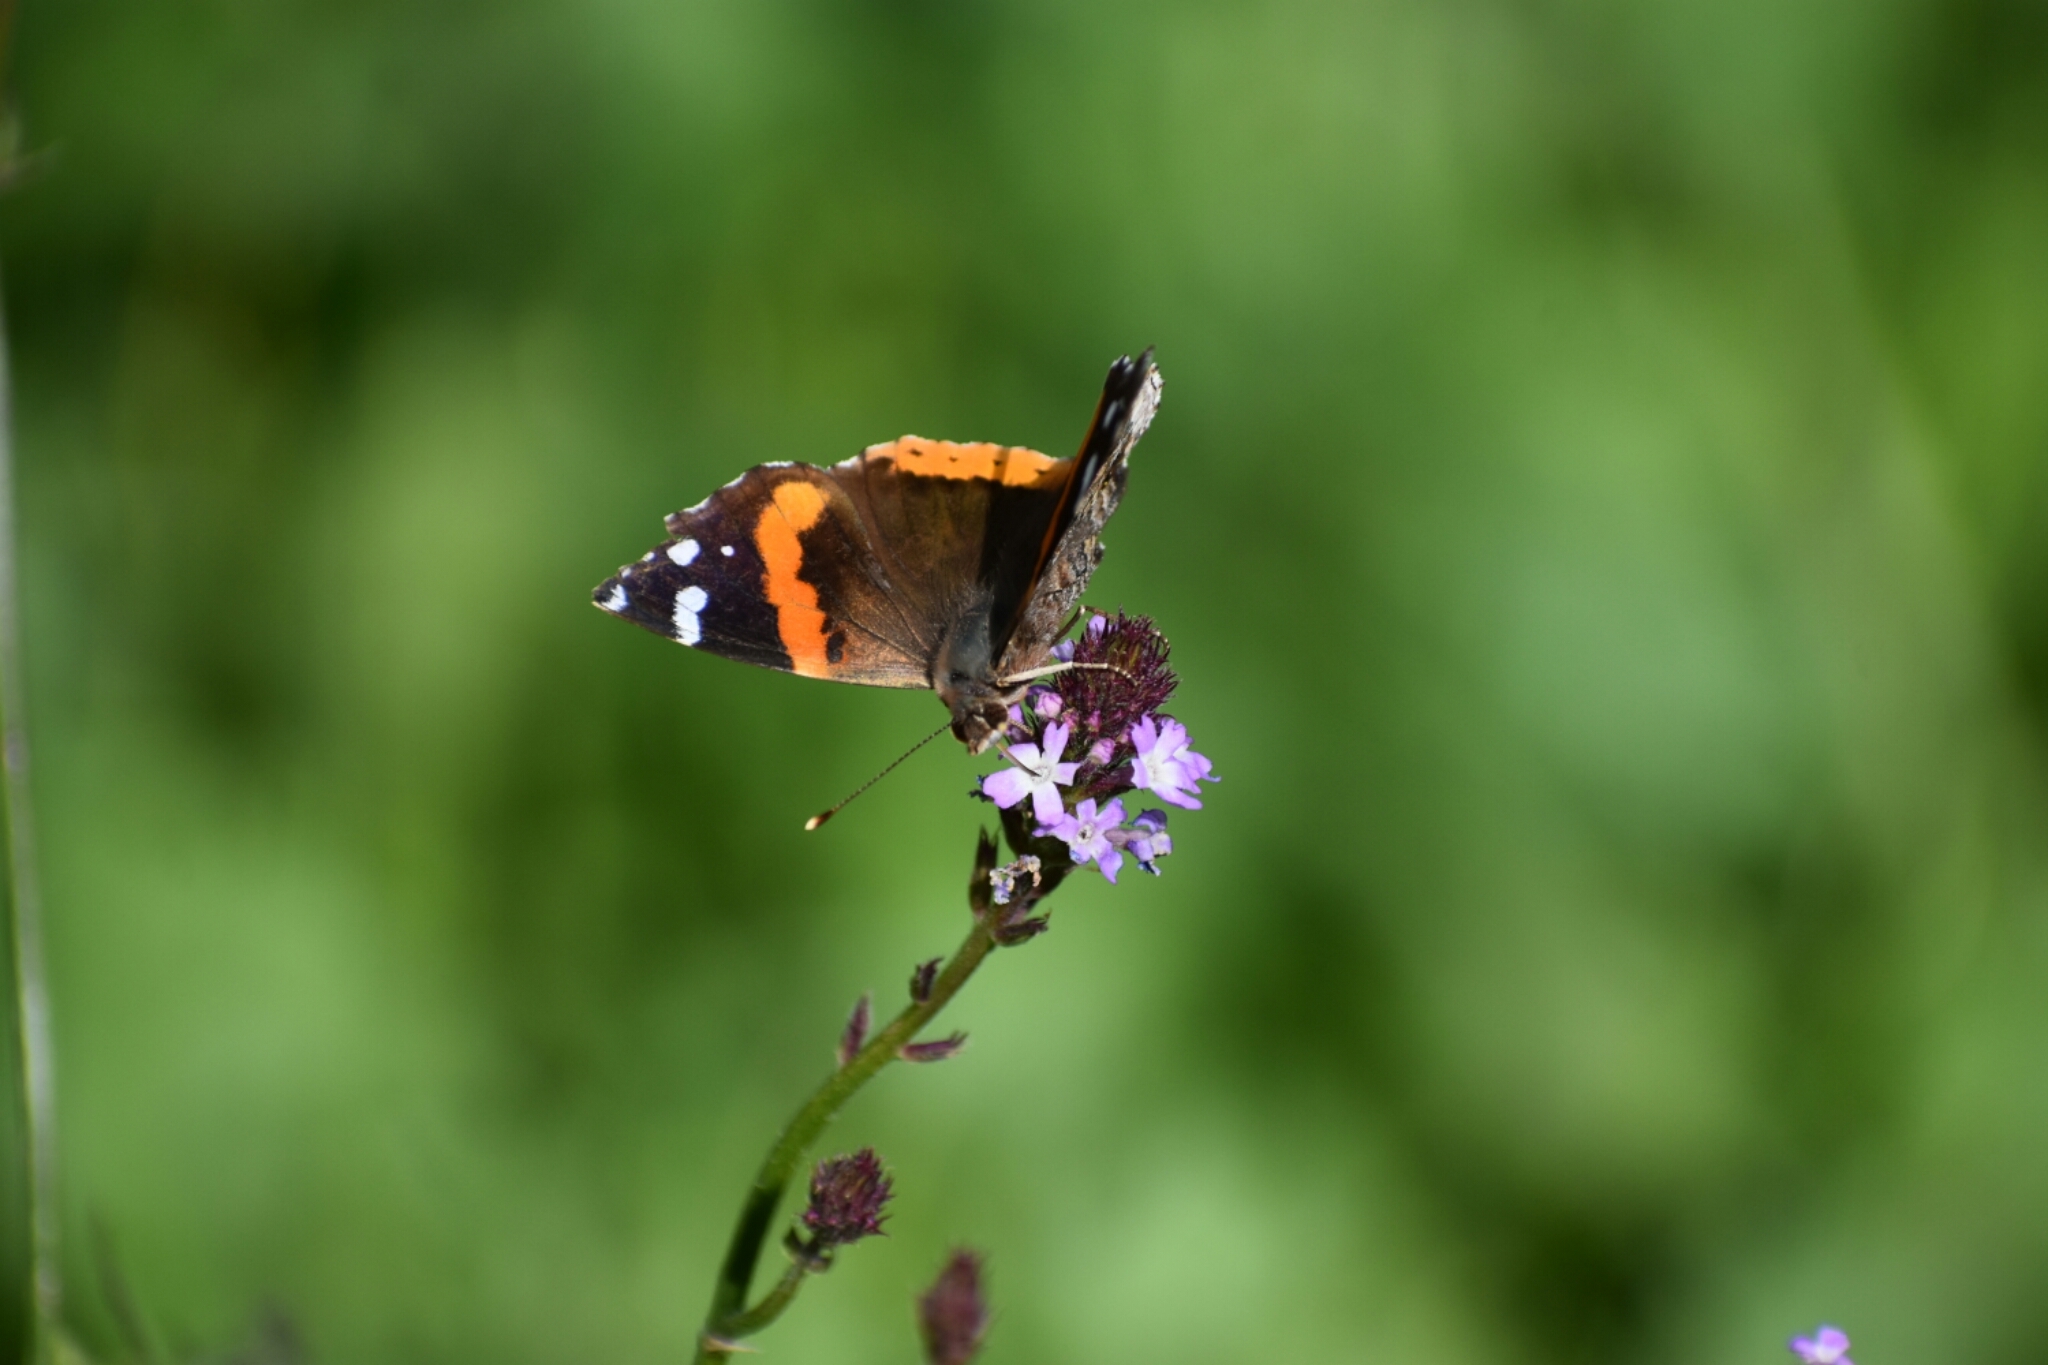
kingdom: Animalia
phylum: Arthropoda
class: Insecta
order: Lepidoptera
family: Nymphalidae
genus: Vanessa
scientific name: Vanessa atalanta
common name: Red admiral
